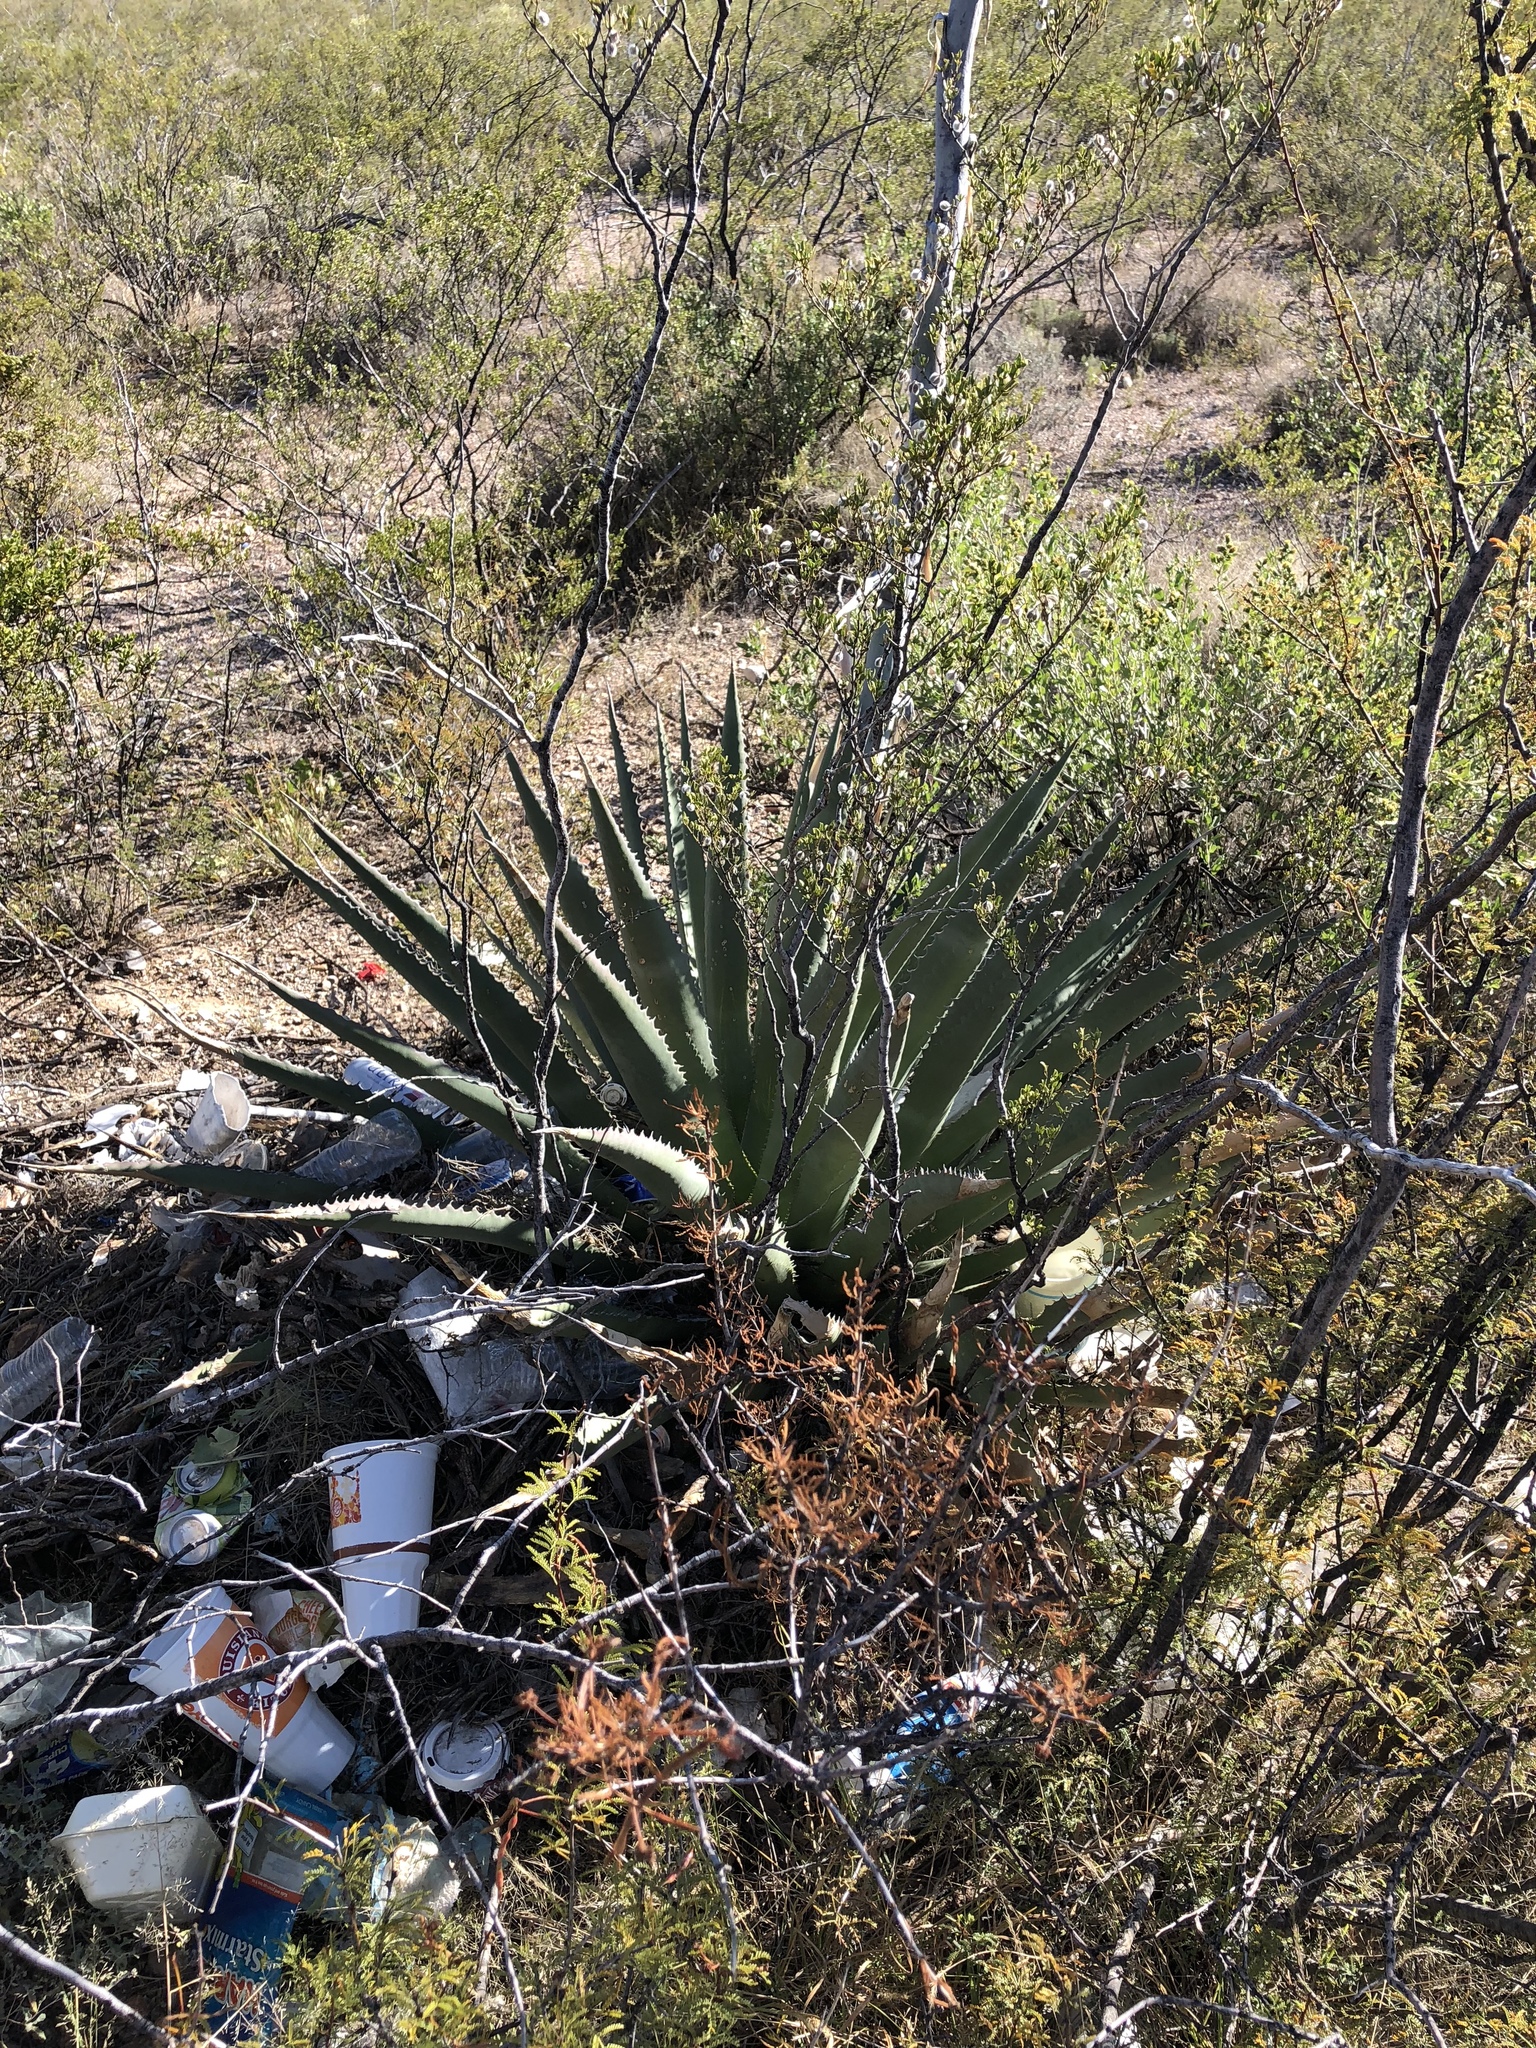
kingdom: Plantae
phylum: Tracheophyta
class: Liliopsida
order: Asparagales
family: Asparagaceae
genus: Agave
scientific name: Agave palmeri
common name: Palmer agave
